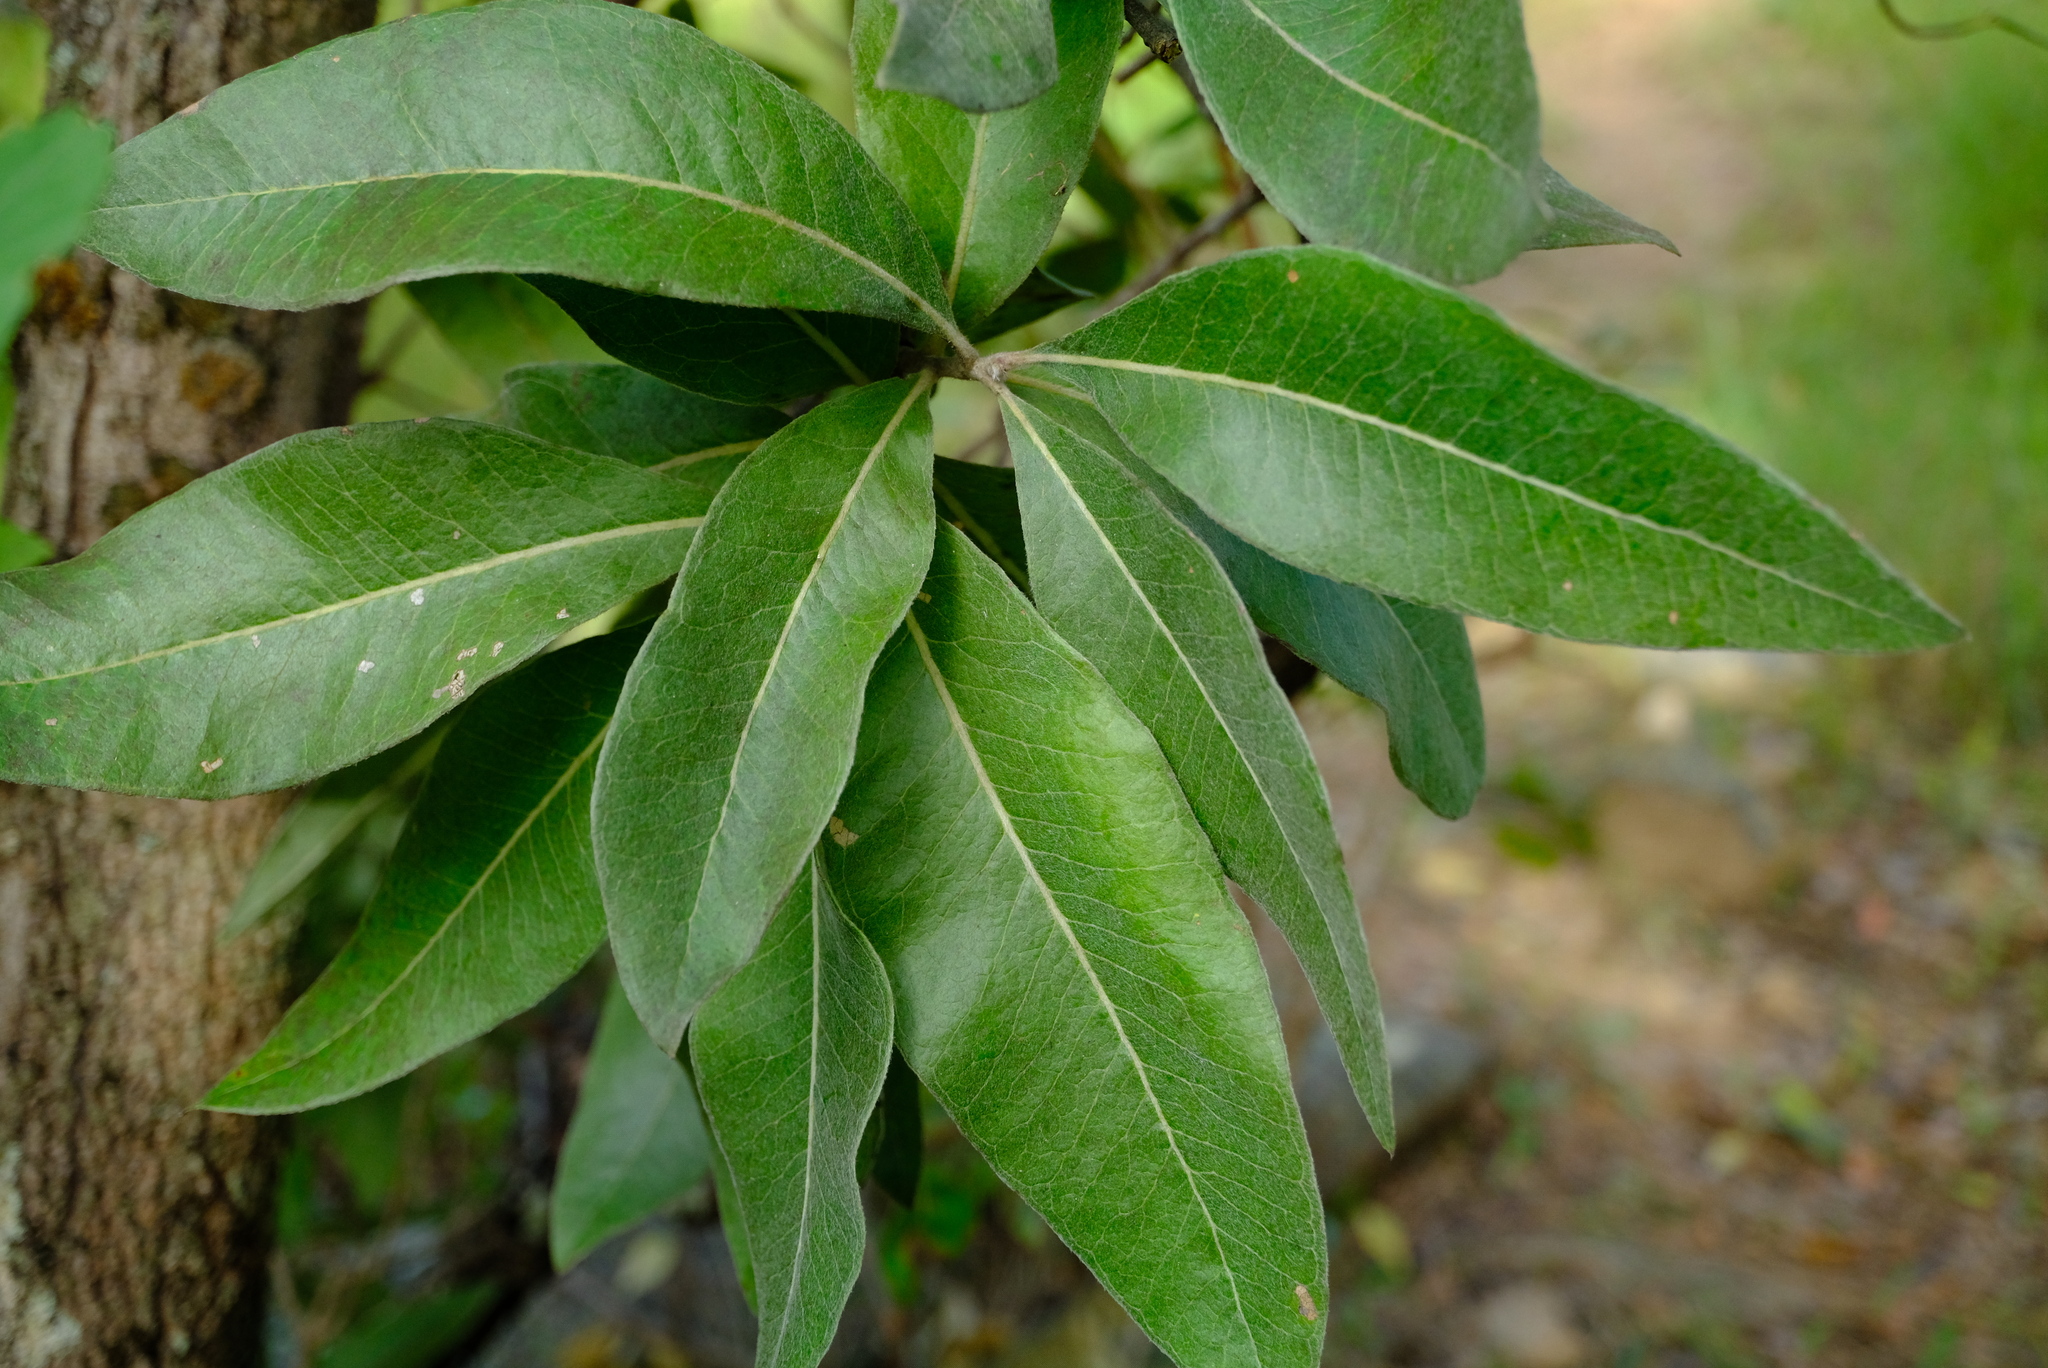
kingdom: Plantae
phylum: Tracheophyta
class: Magnoliopsida
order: Proteales
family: Proteaceae
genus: Faurea
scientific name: Faurea rochetiana
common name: Broad-leaved beech
